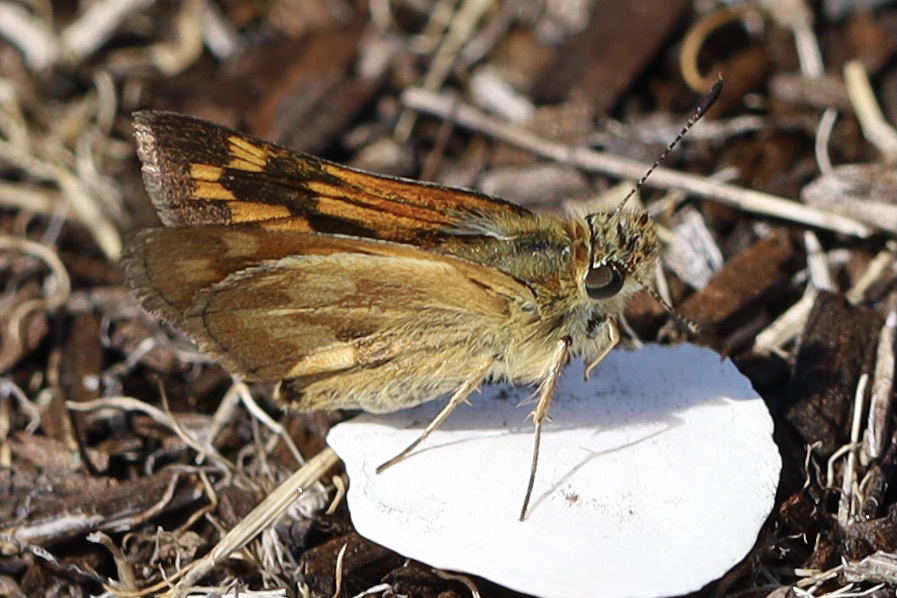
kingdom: Animalia
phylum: Arthropoda
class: Insecta
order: Lepidoptera
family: Hesperiidae
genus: Ochlodes
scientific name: Ochlodes sylvanoides
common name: Woodland skipper
